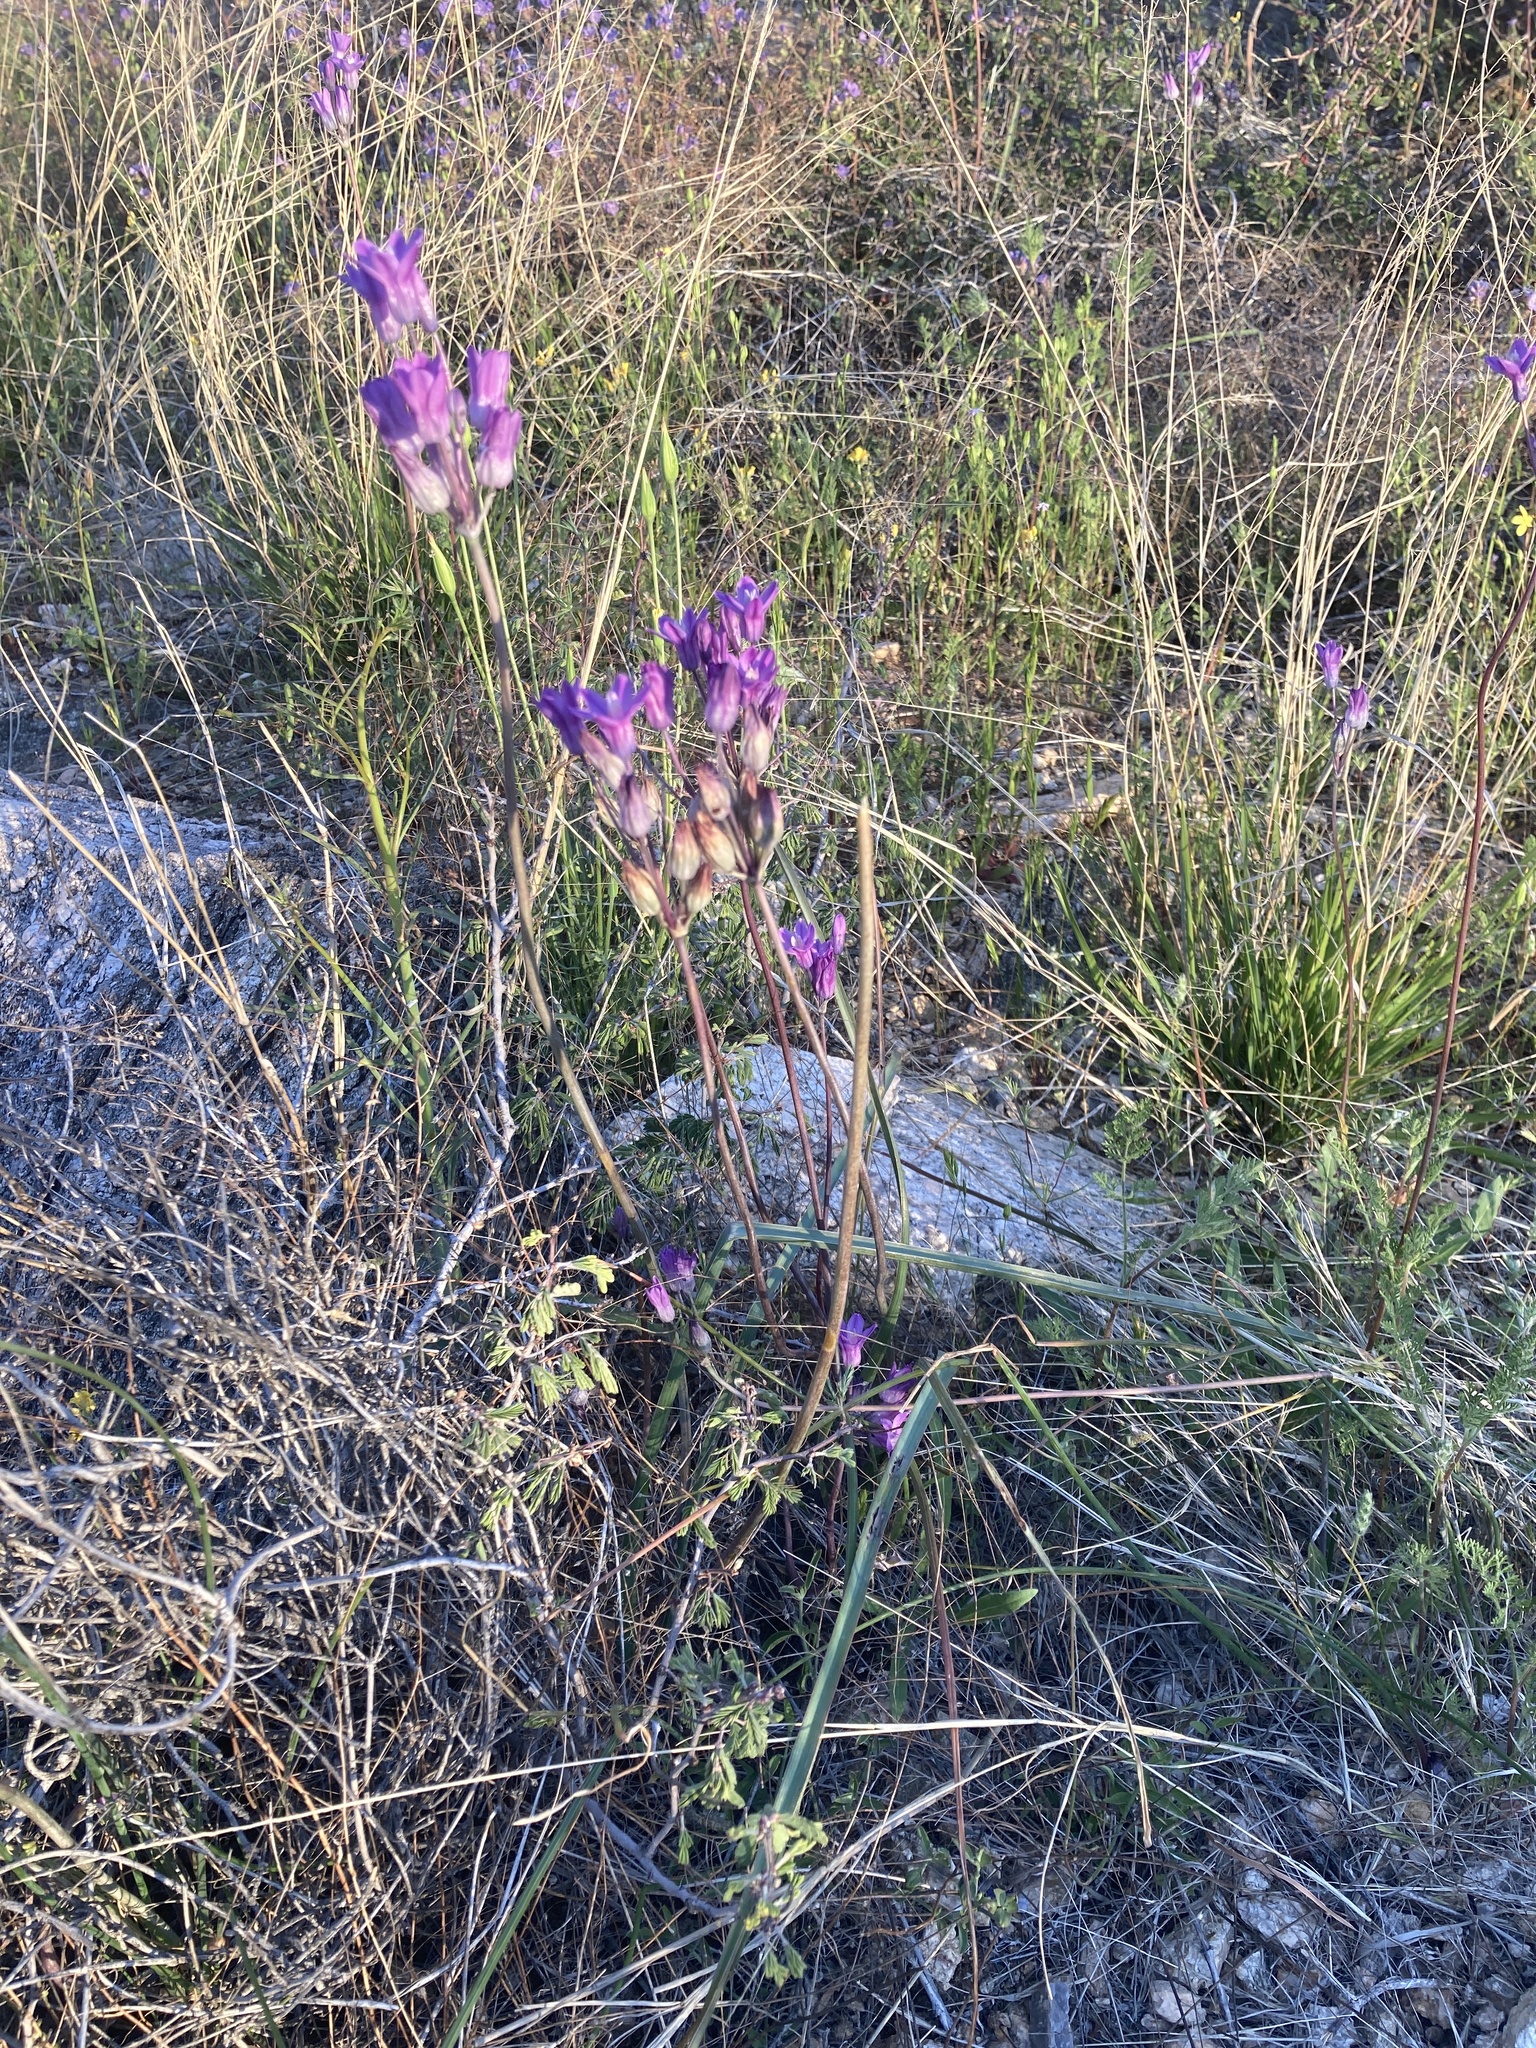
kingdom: Plantae
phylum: Tracheophyta
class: Liliopsida
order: Asparagales
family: Asparagaceae
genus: Dipterostemon
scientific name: Dipterostemon capitatus
